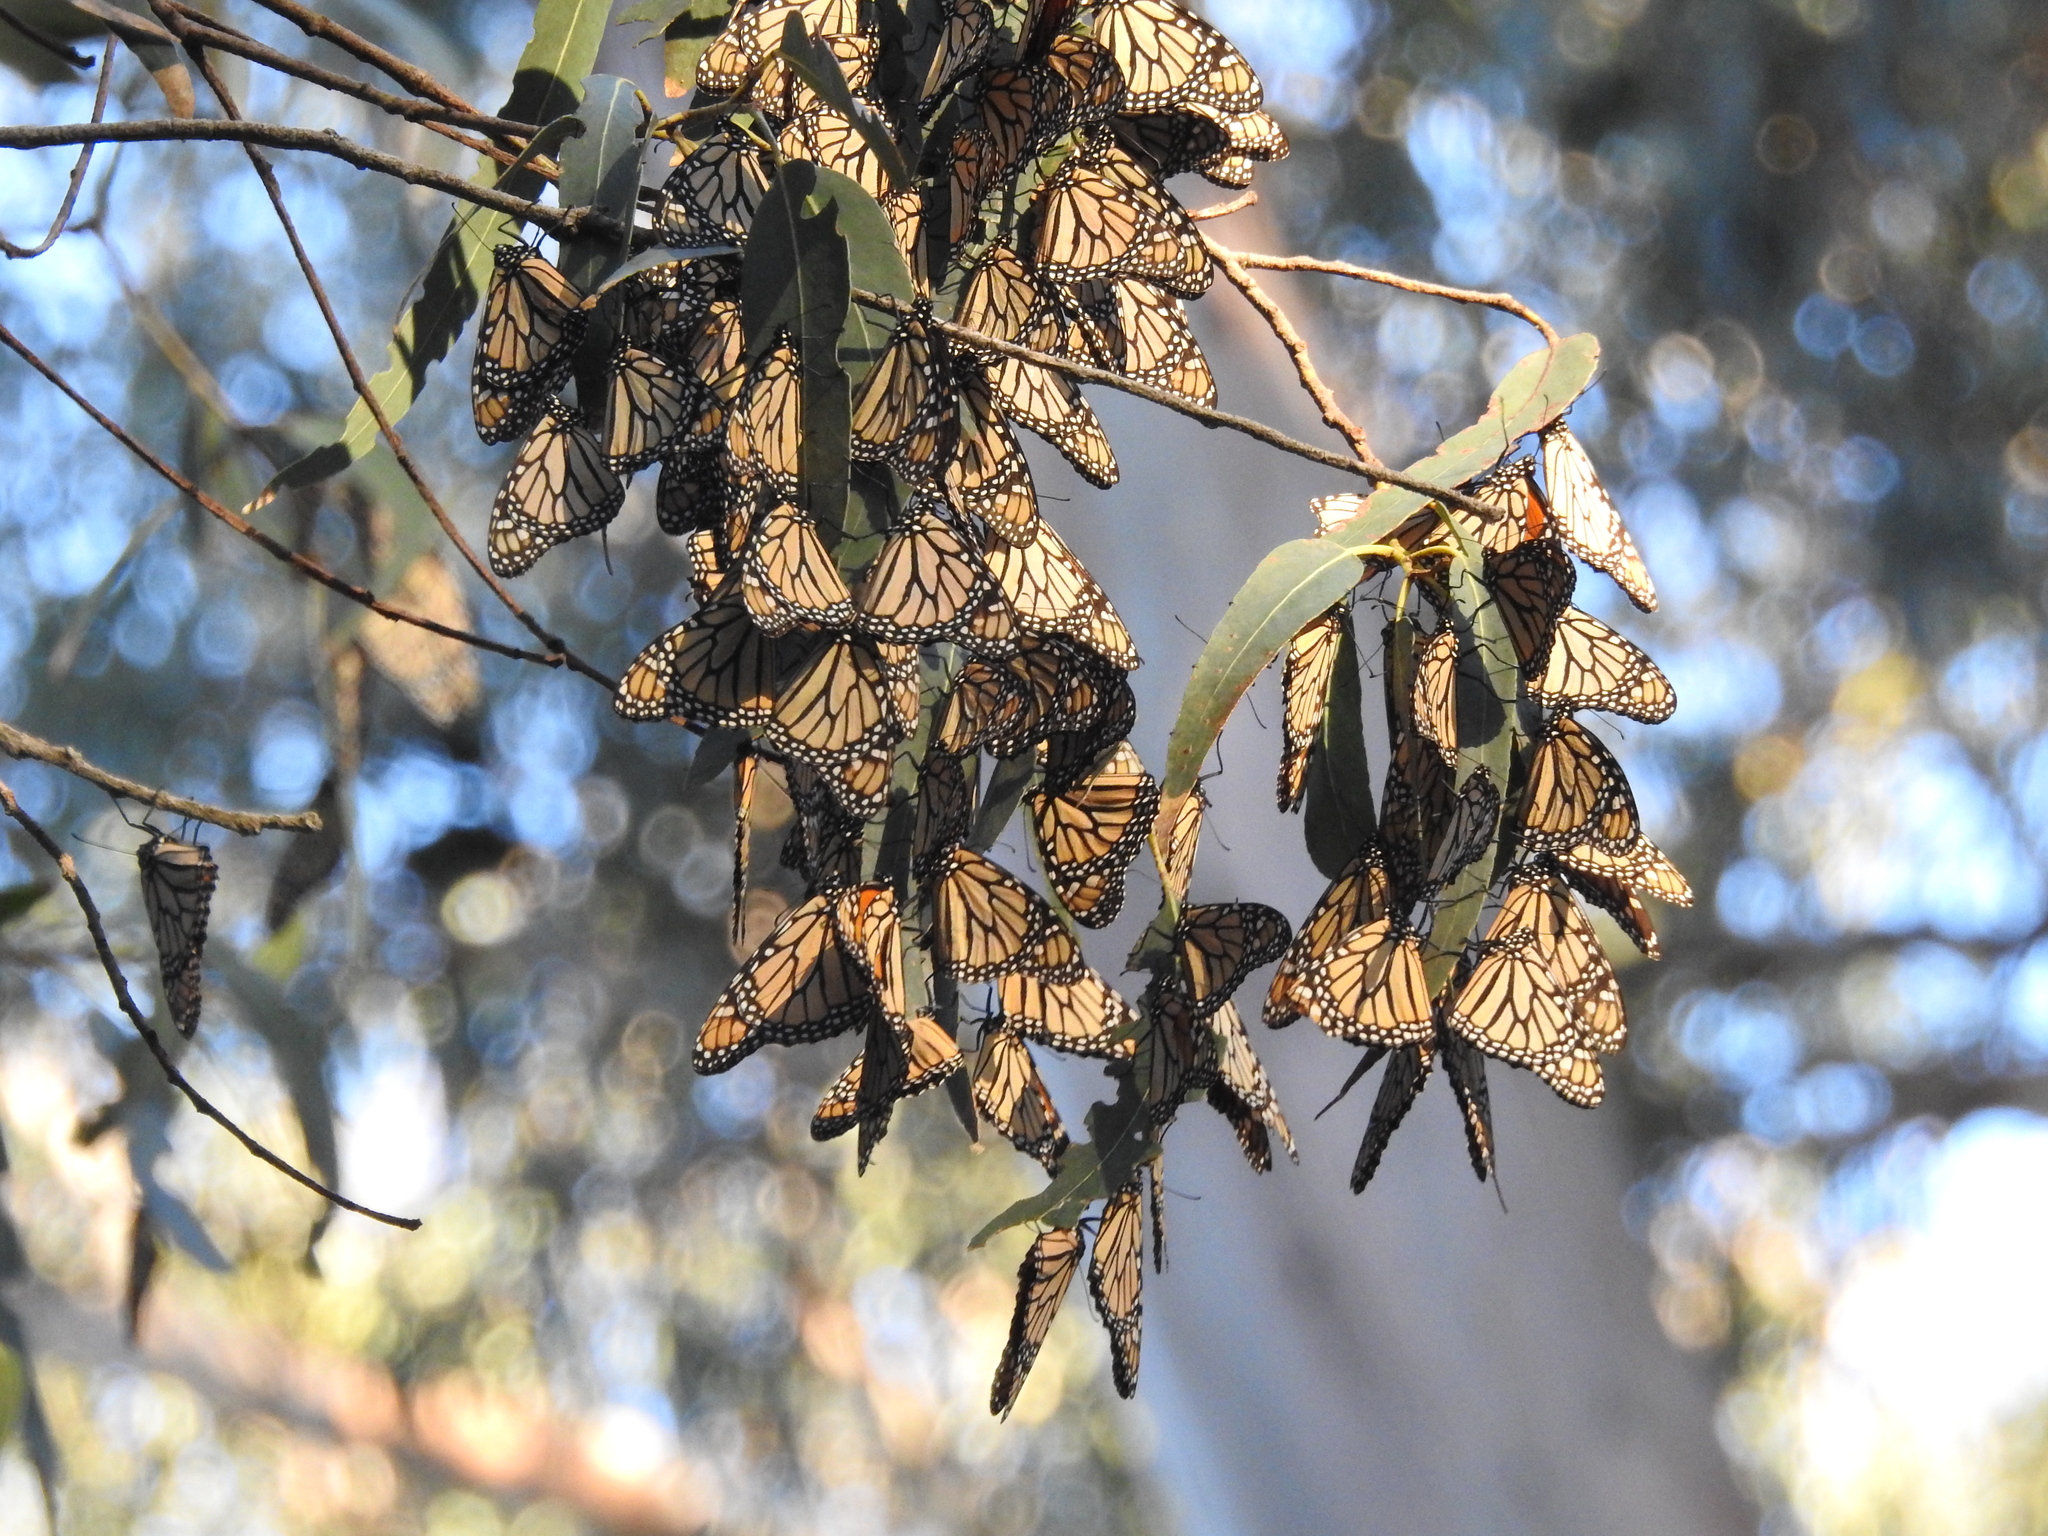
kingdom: Animalia
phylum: Arthropoda
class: Insecta
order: Lepidoptera
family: Nymphalidae
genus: Danaus
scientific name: Danaus plexippus
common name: Monarch
